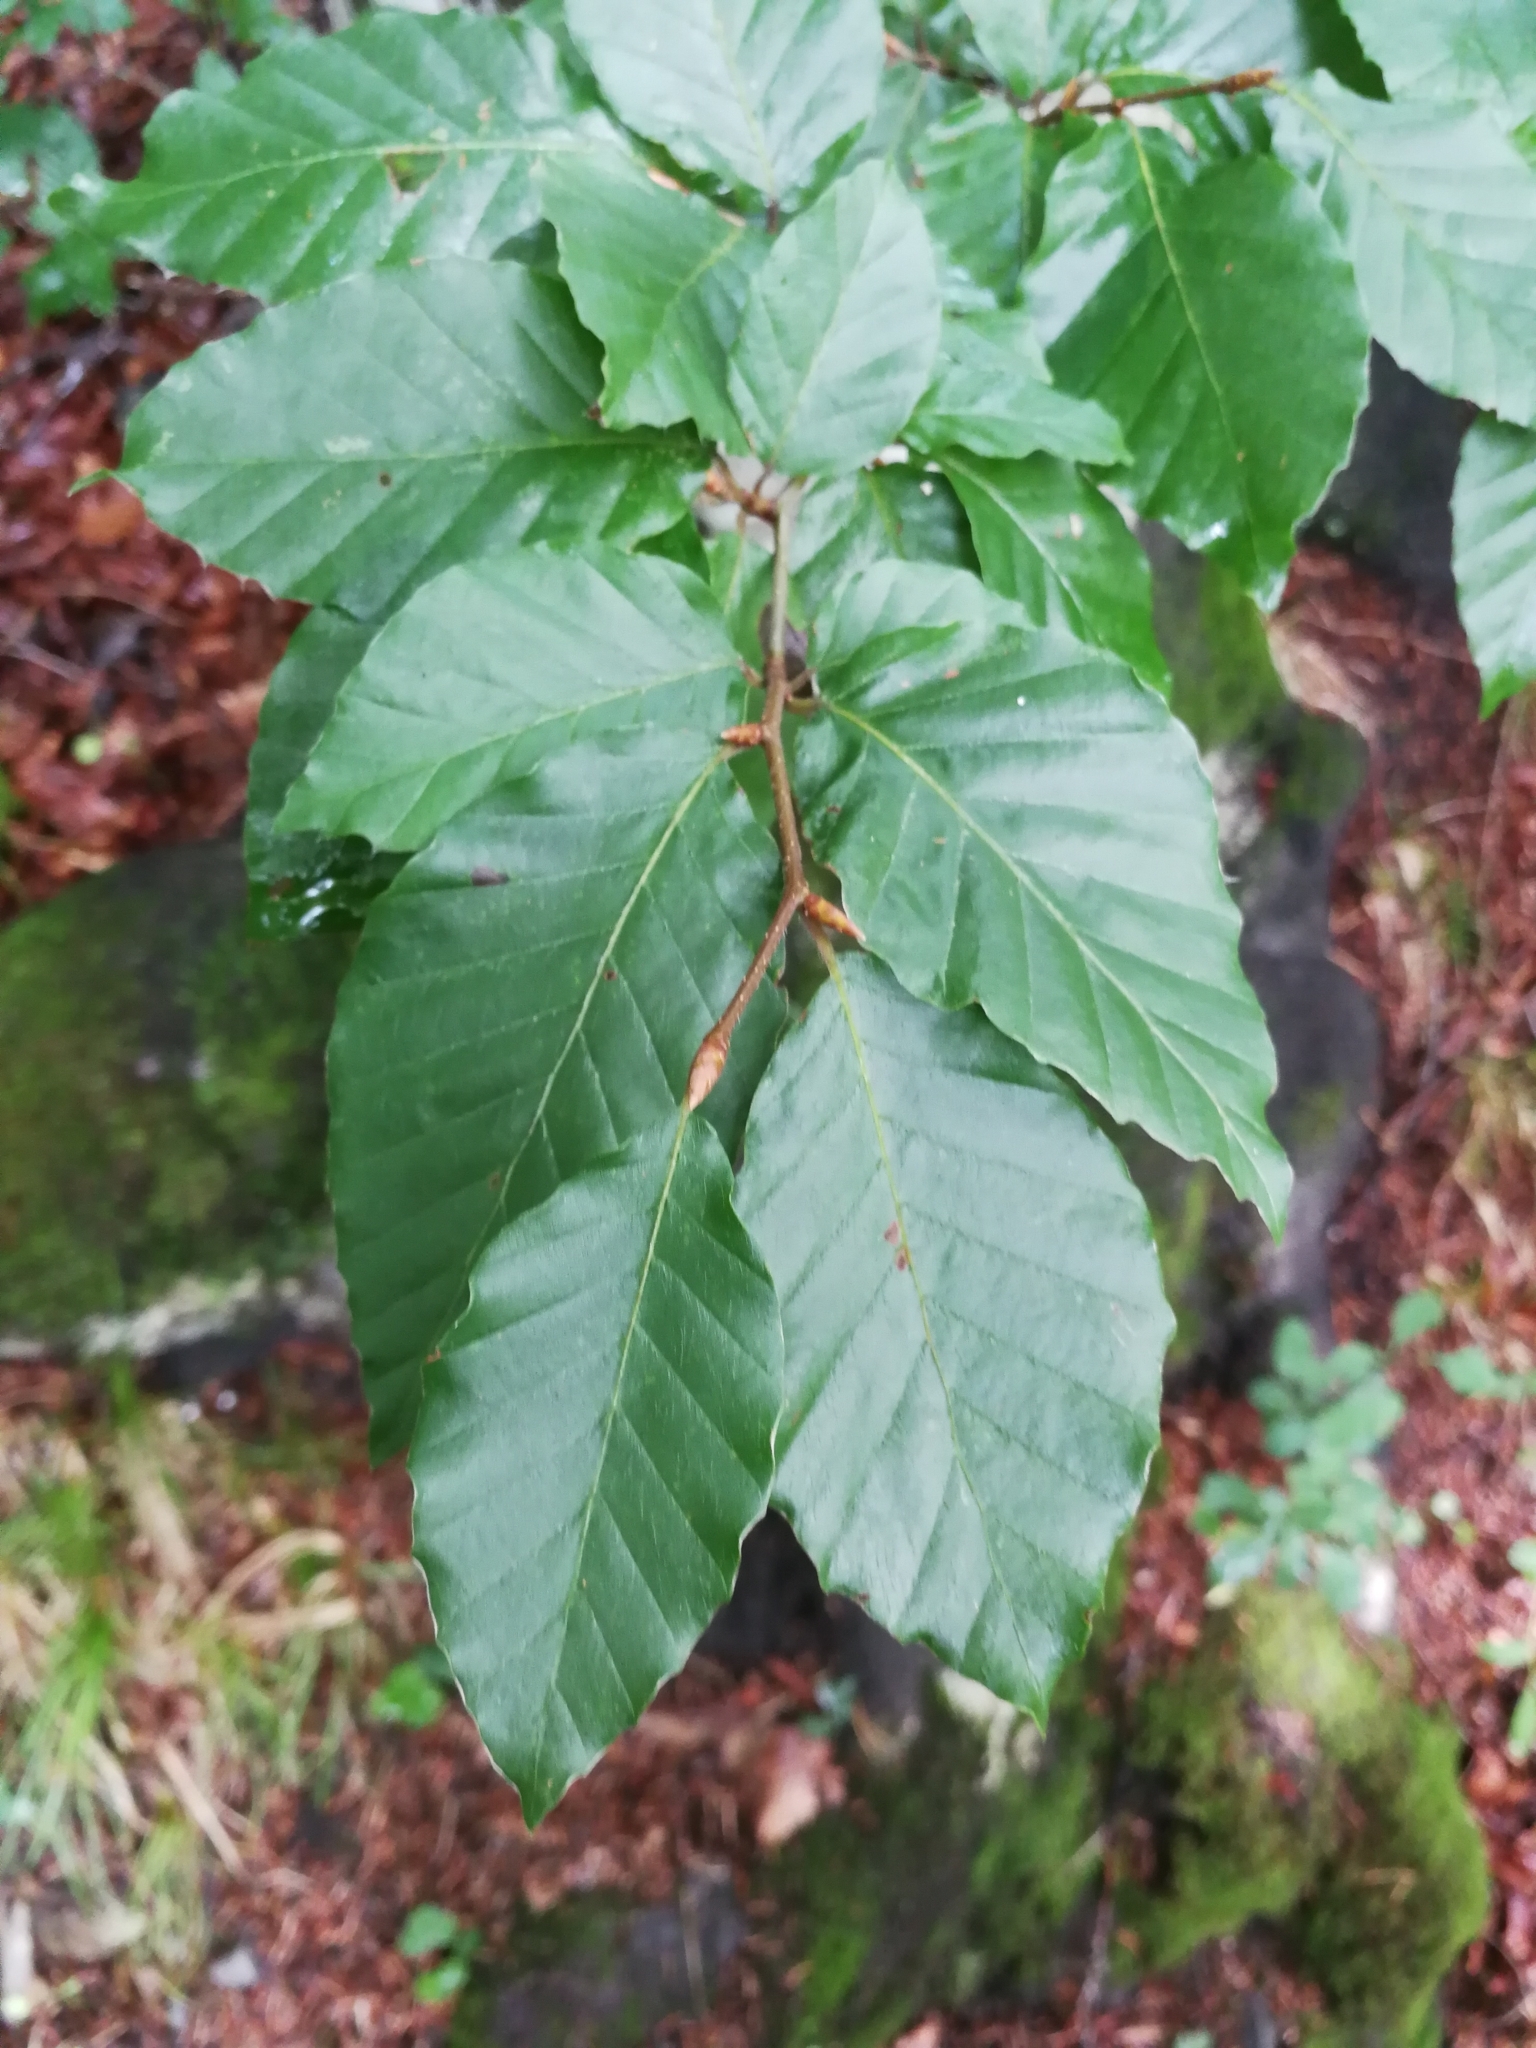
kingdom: Plantae
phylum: Tracheophyta
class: Magnoliopsida
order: Fagales
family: Fagaceae
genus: Fagus
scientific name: Fagus sylvatica
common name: Beech
